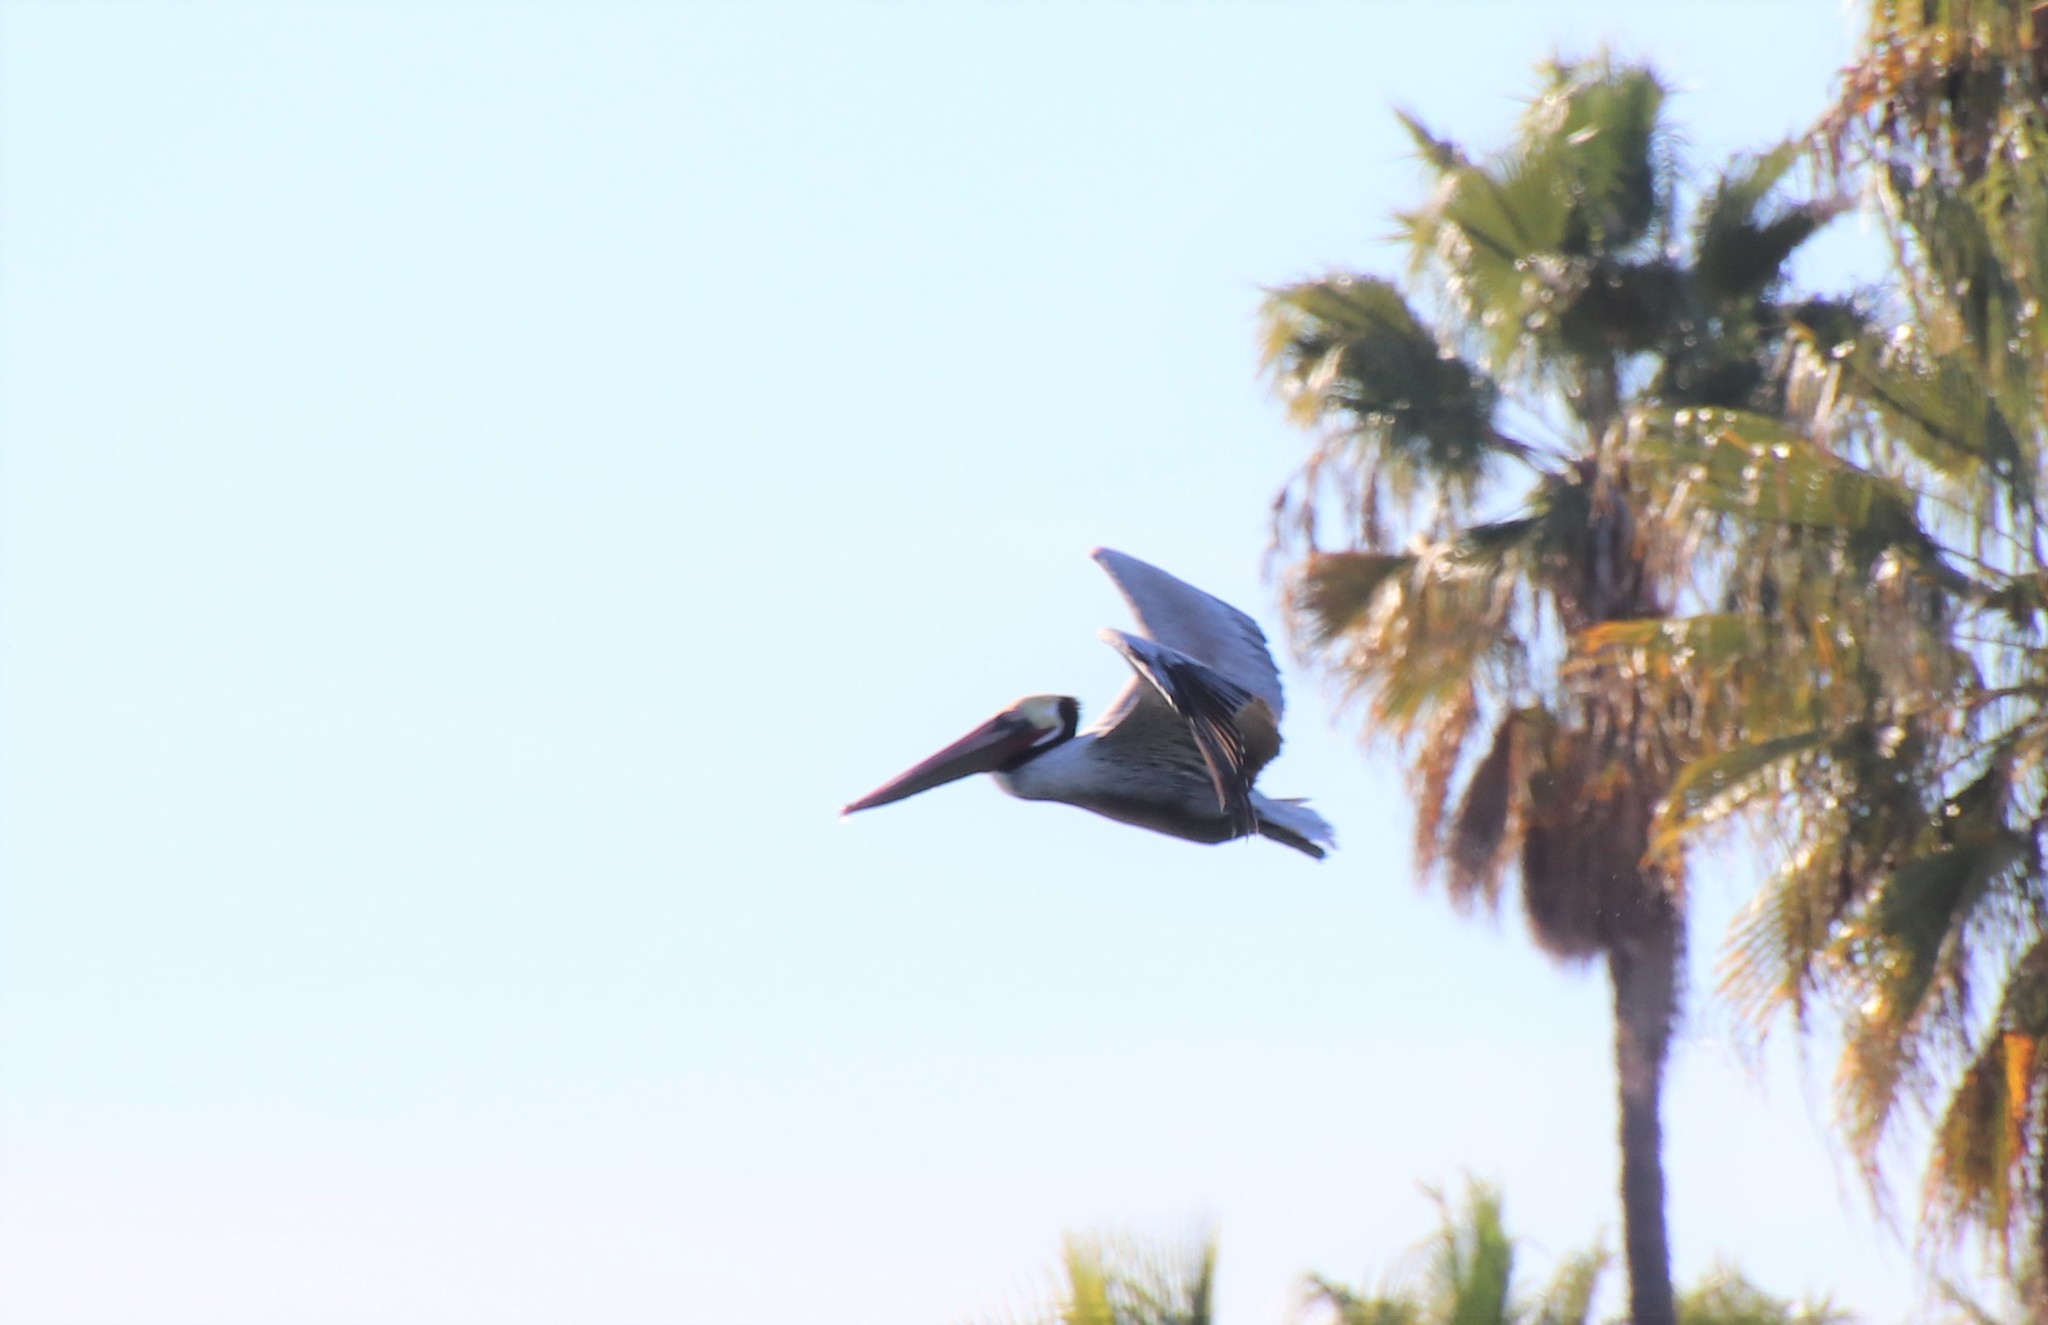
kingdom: Animalia
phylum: Chordata
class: Aves
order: Pelecaniformes
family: Pelecanidae
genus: Pelecanus
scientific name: Pelecanus occidentalis
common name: Brown pelican
